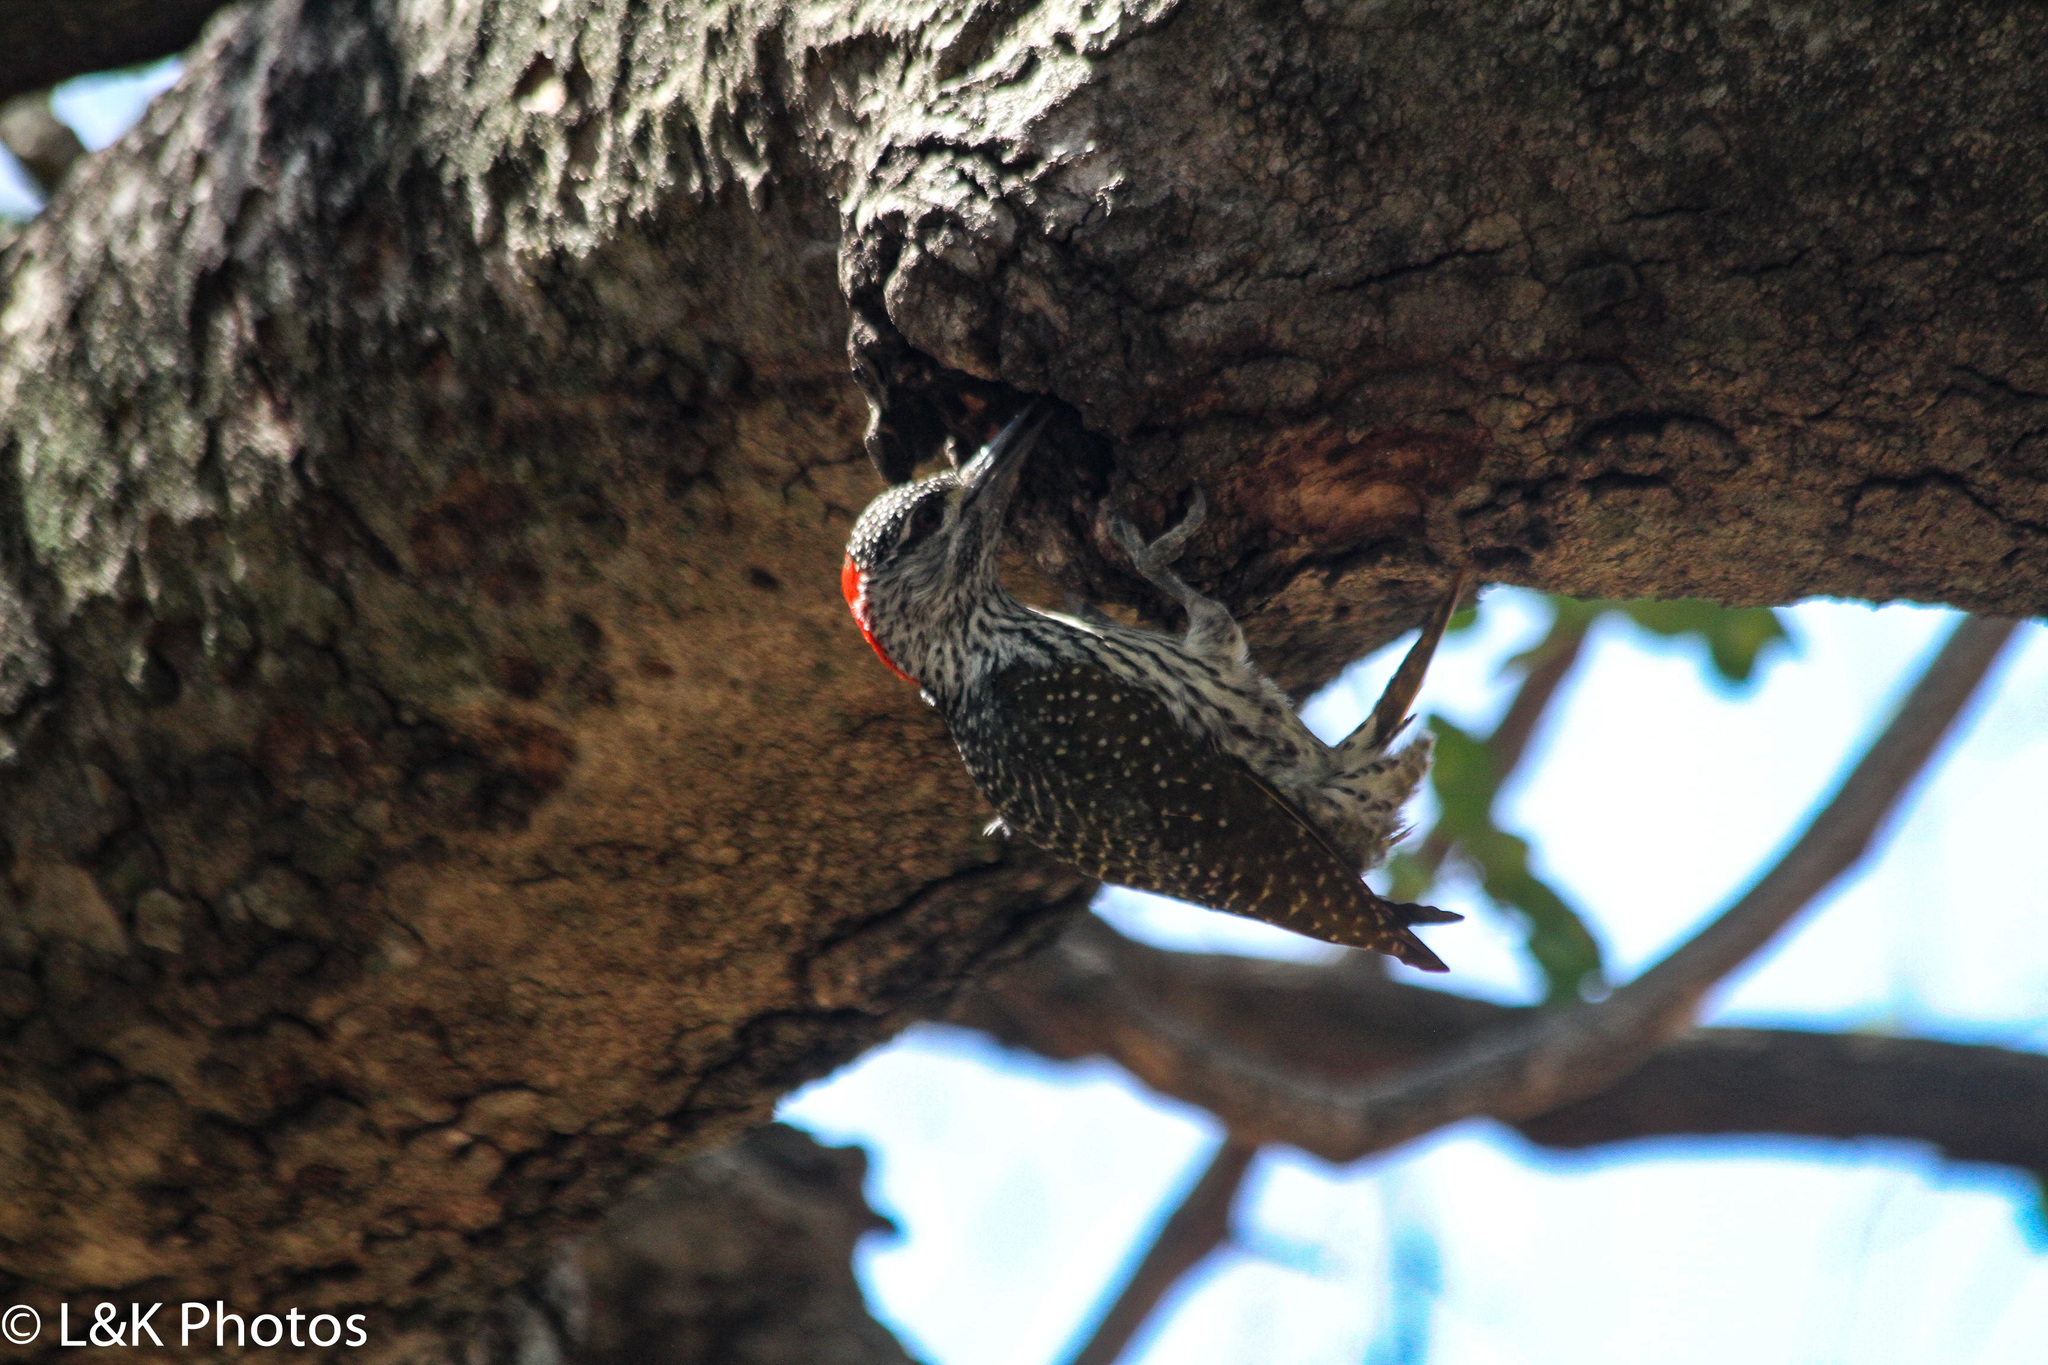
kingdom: Animalia
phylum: Chordata
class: Aves
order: Piciformes
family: Picidae
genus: Campethera
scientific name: Campethera abingoni
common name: Golden-tailed woodpecker
